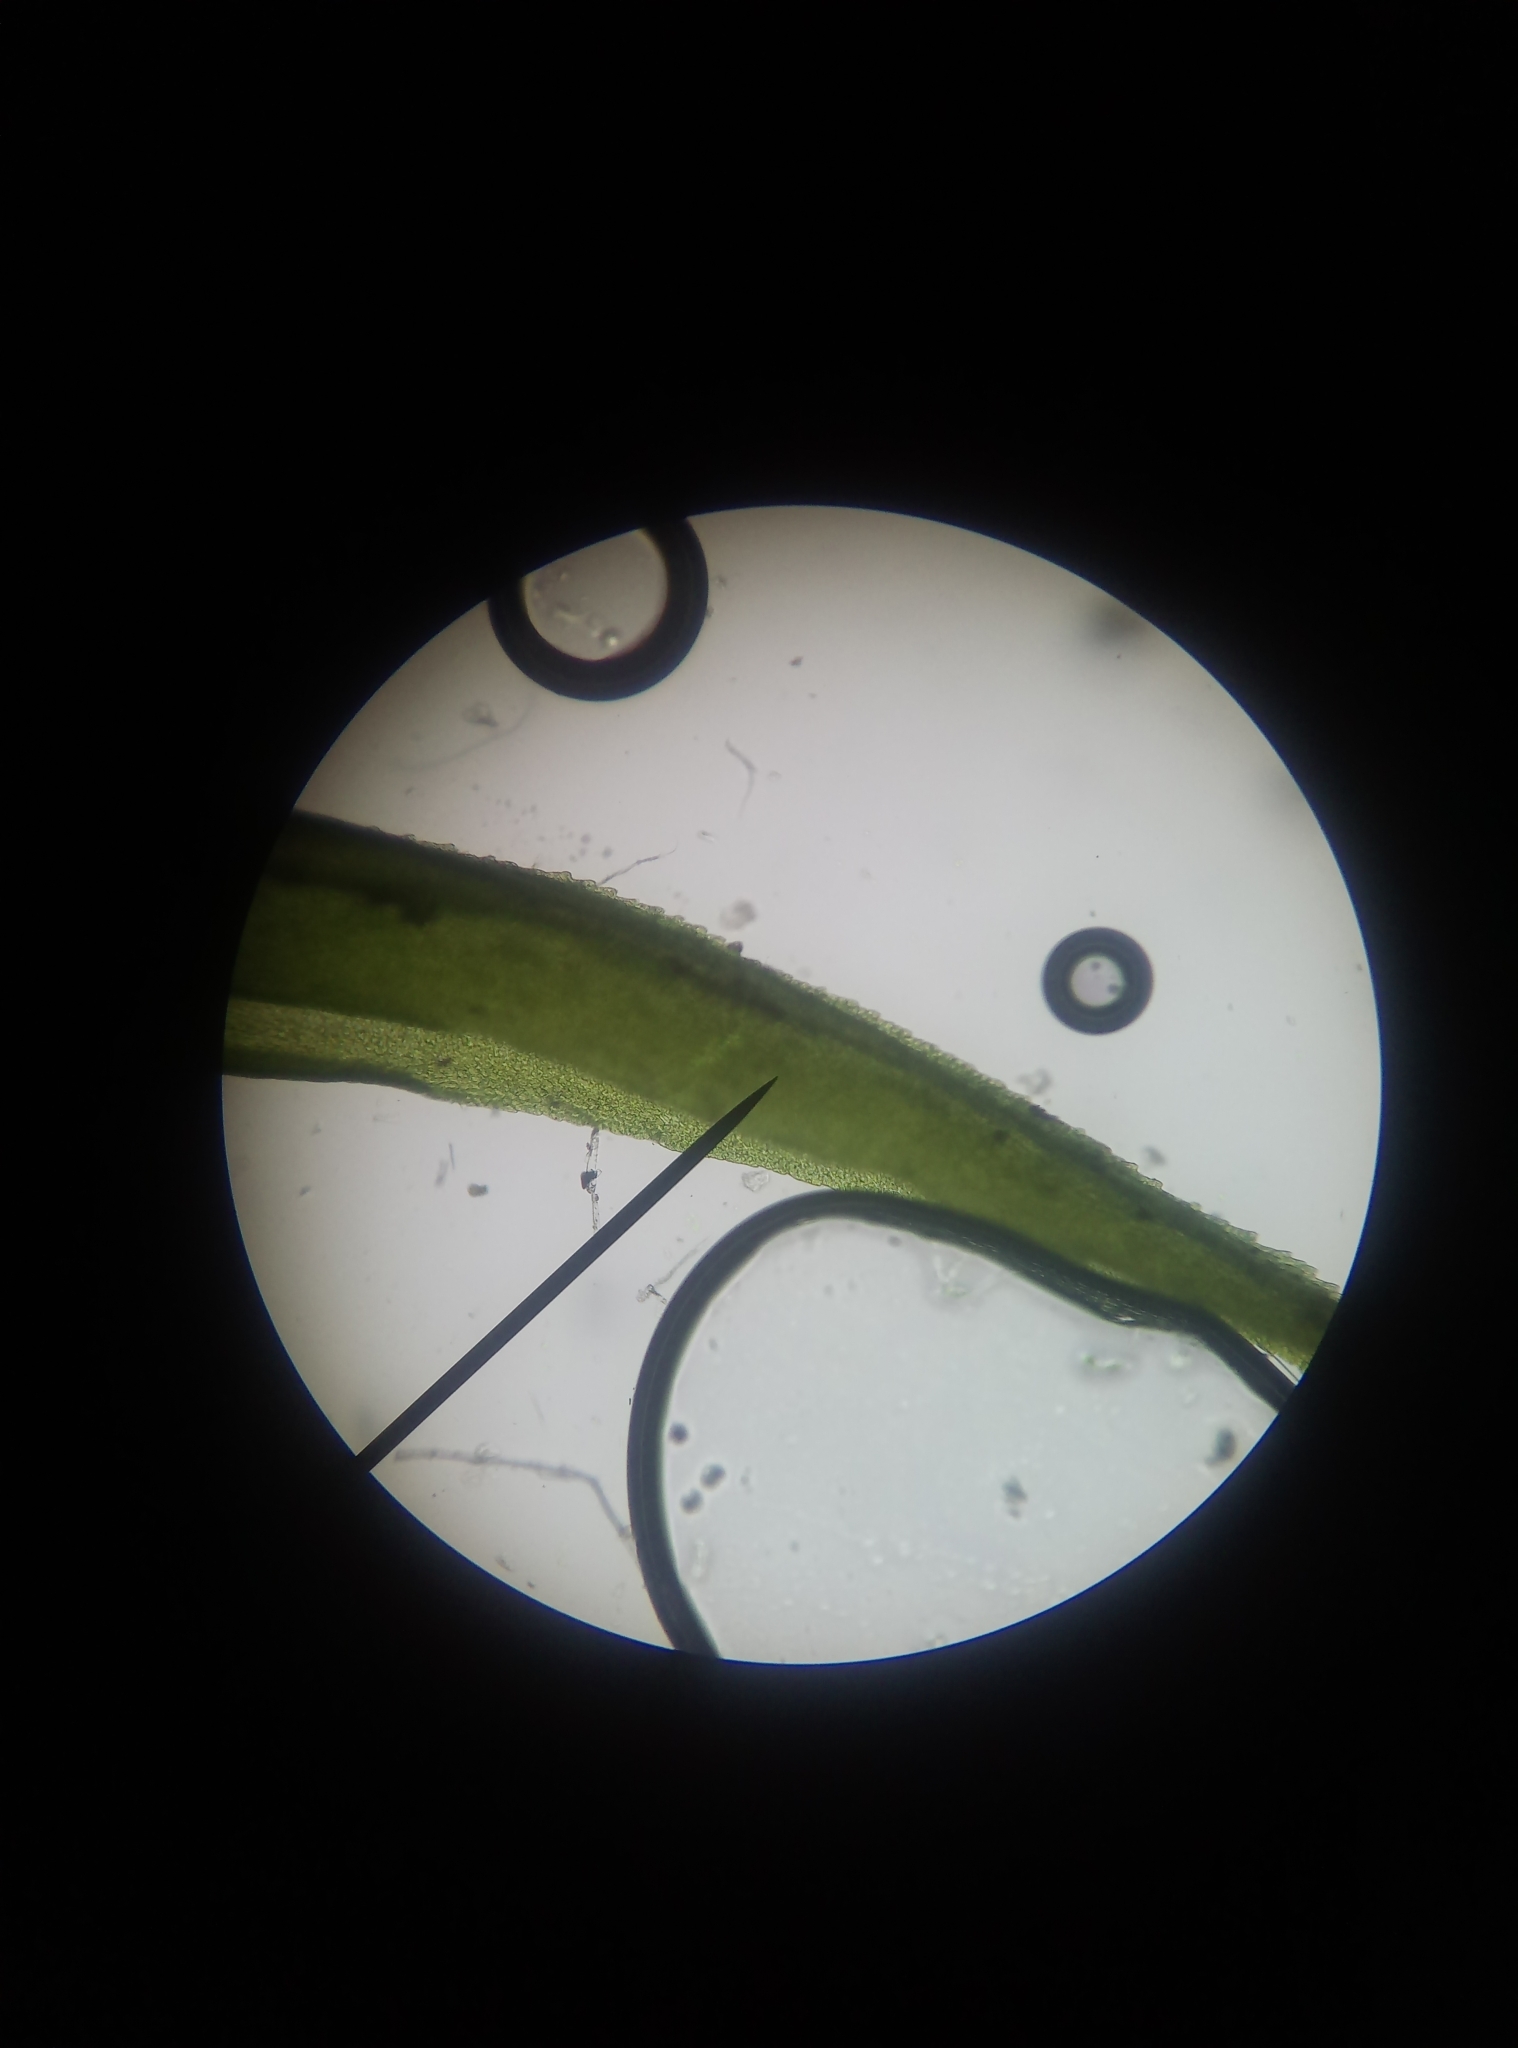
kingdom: Plantae
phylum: Bryophyta
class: Bryopsida
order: Dicranales
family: Dicranaceae
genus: Dicranum
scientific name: Dicranum scoparium
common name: Broom fork-moss
